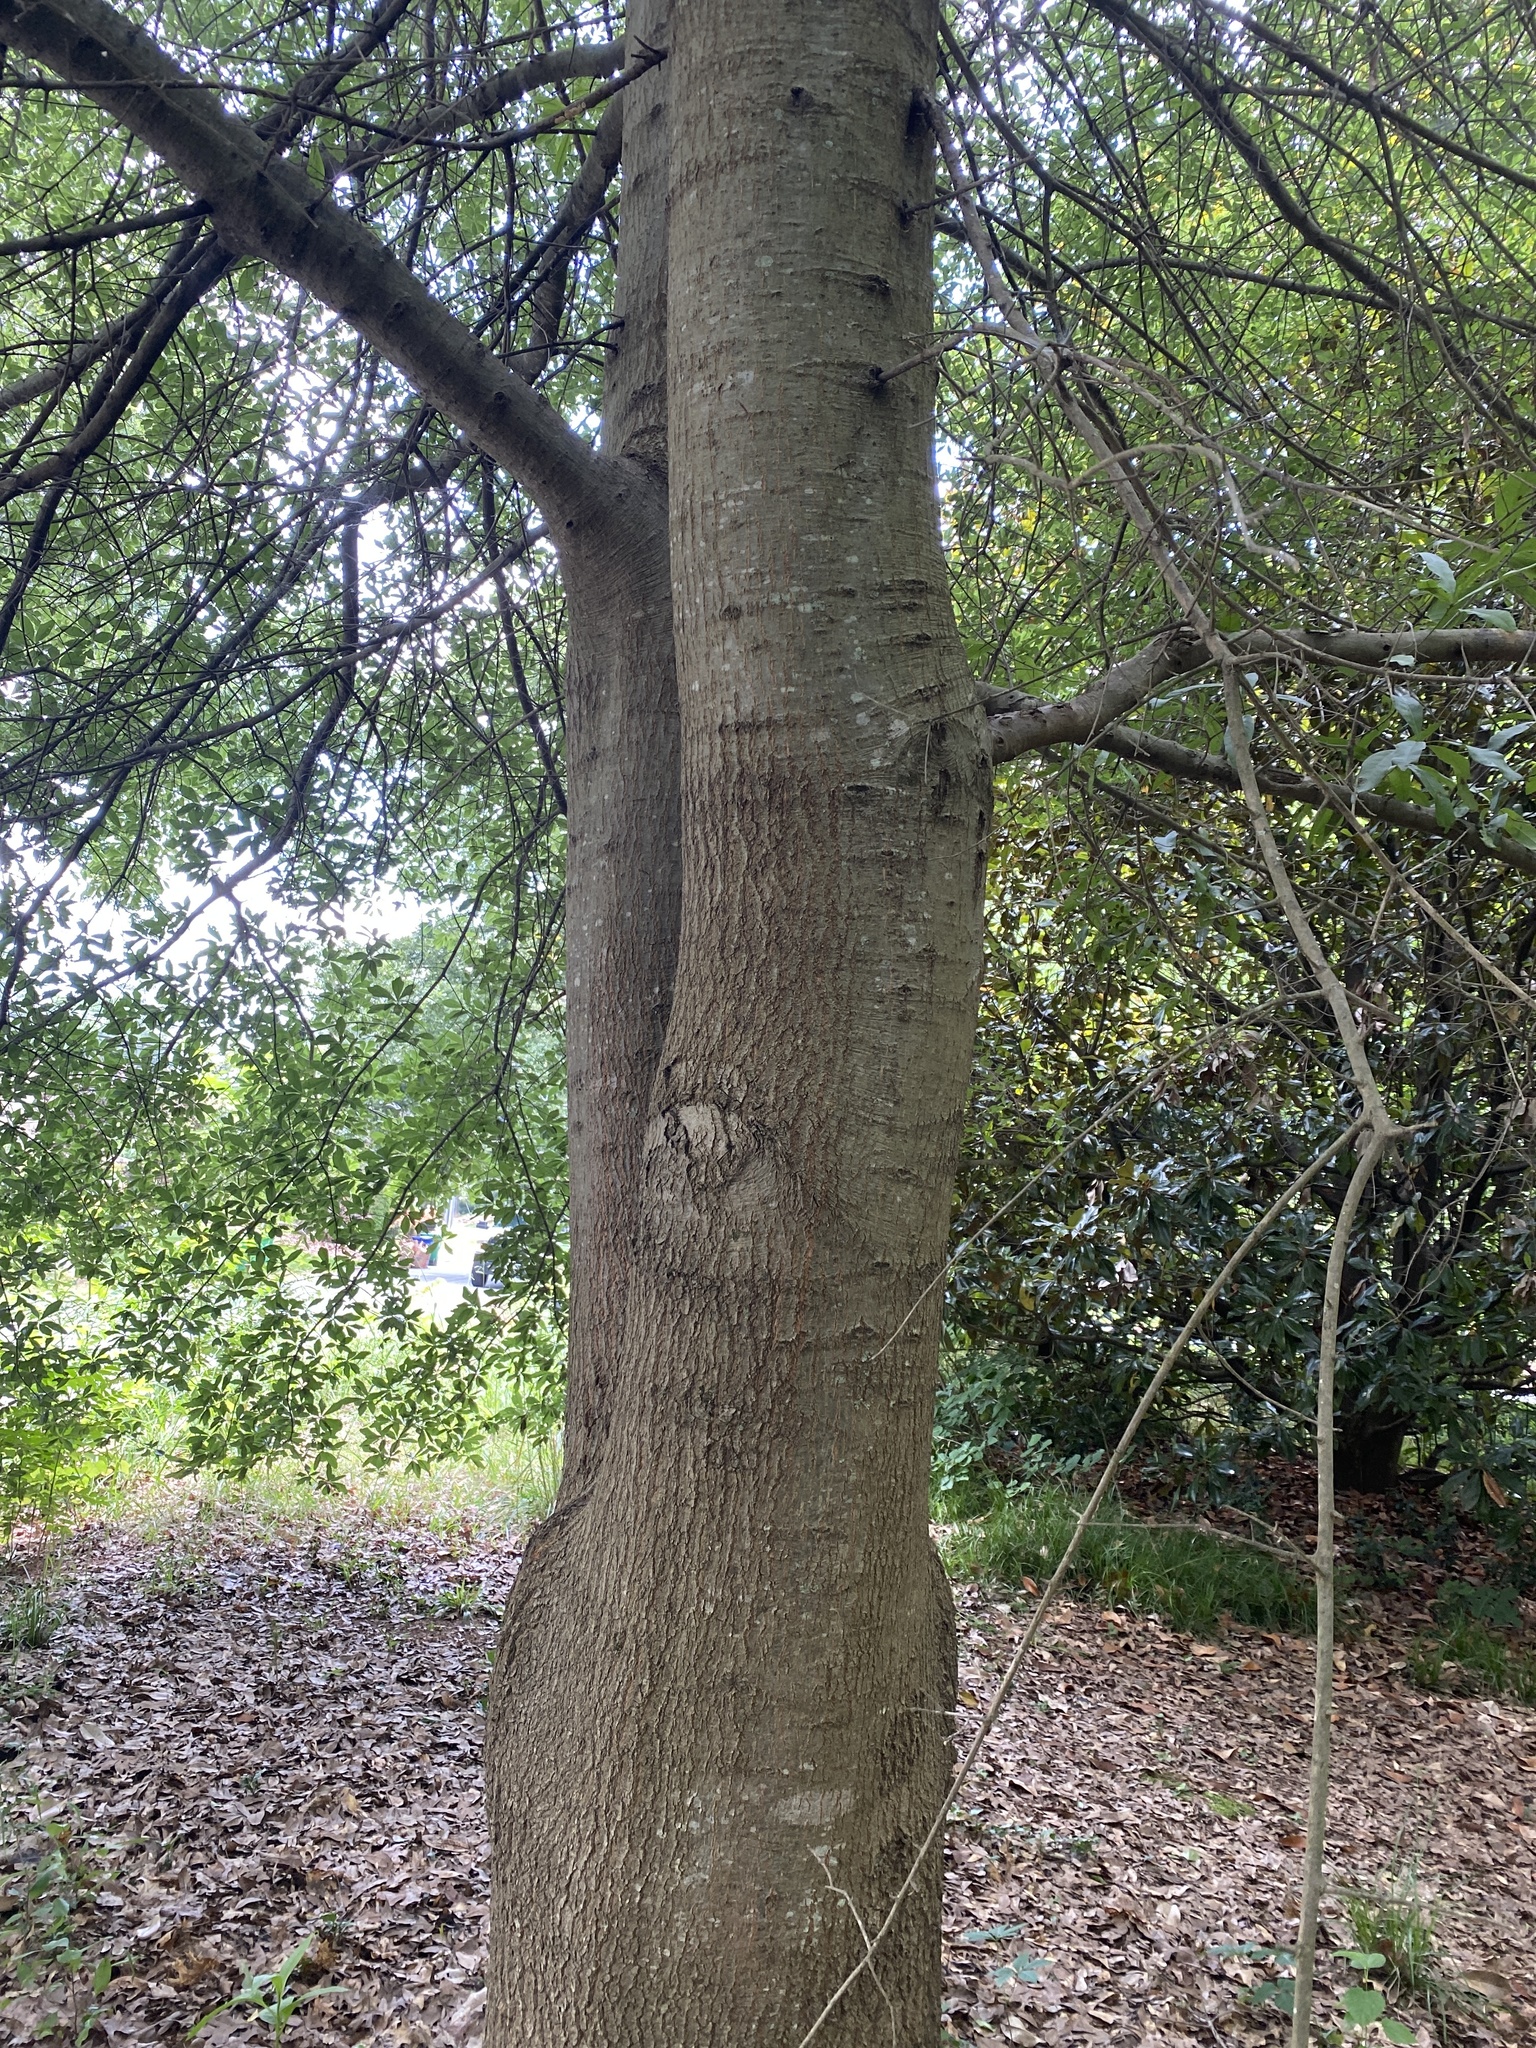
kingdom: Plantae
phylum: Tracheophyta
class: Magnoliopsida
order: Fagales
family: Fagaceae
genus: Quercus
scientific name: Quercus nigra
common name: Water oak
